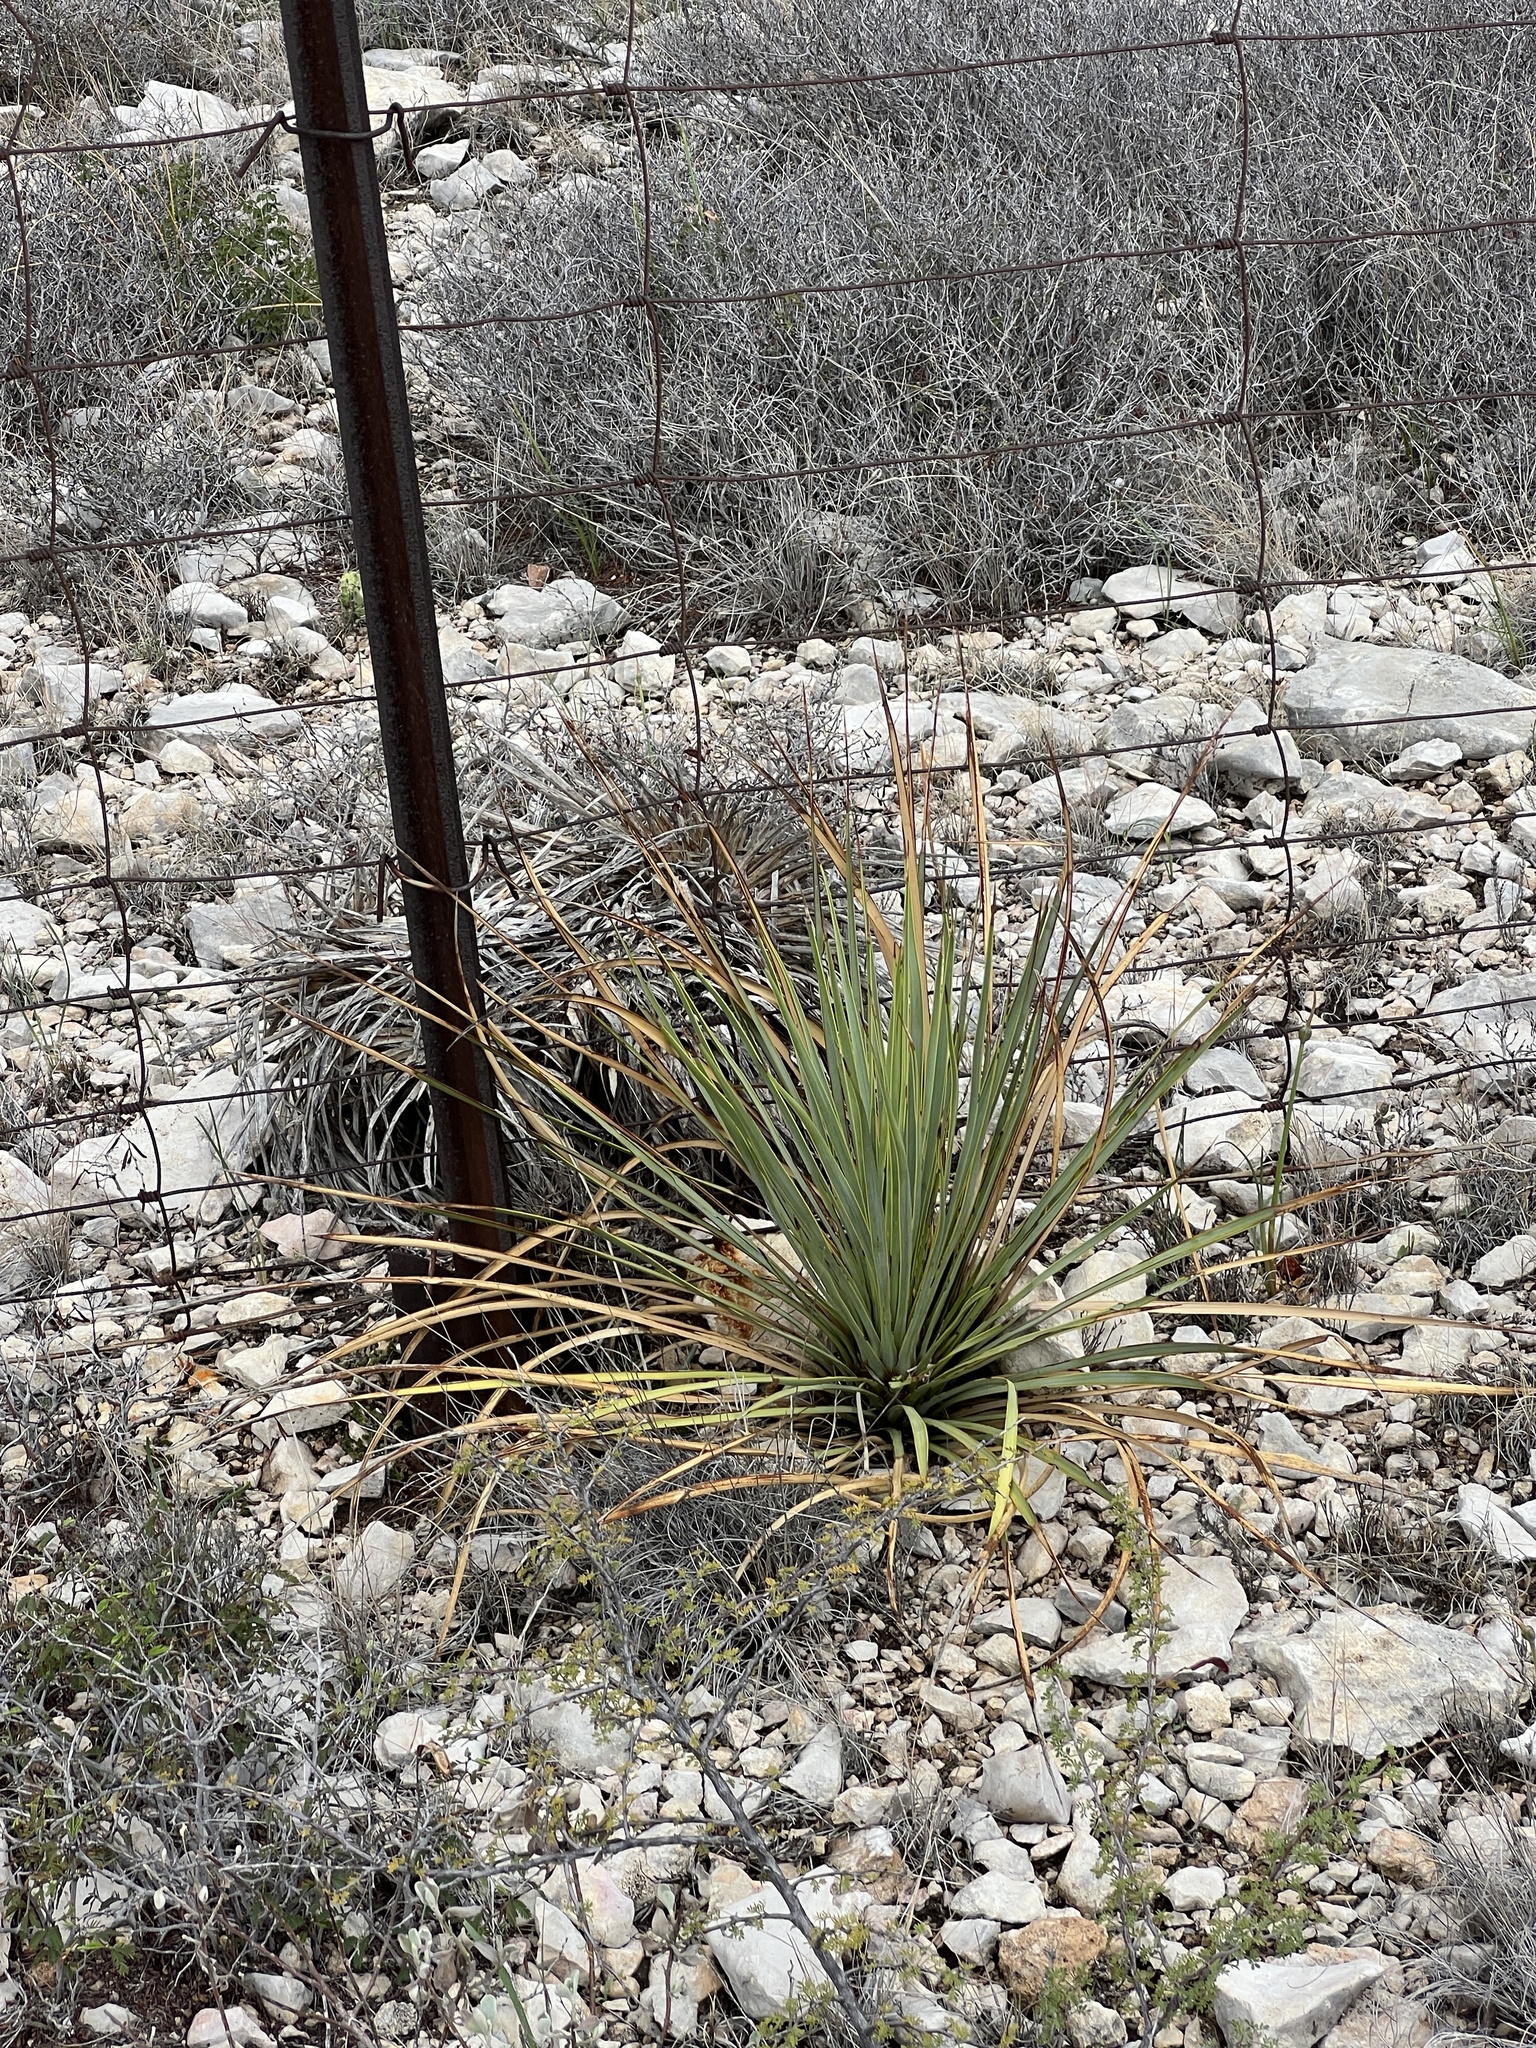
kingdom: Plantae
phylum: Tracheophyta
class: Liliopsida
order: Asparagales
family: Asparagaceae
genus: Dasylirion
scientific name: Dasylirion texanum
